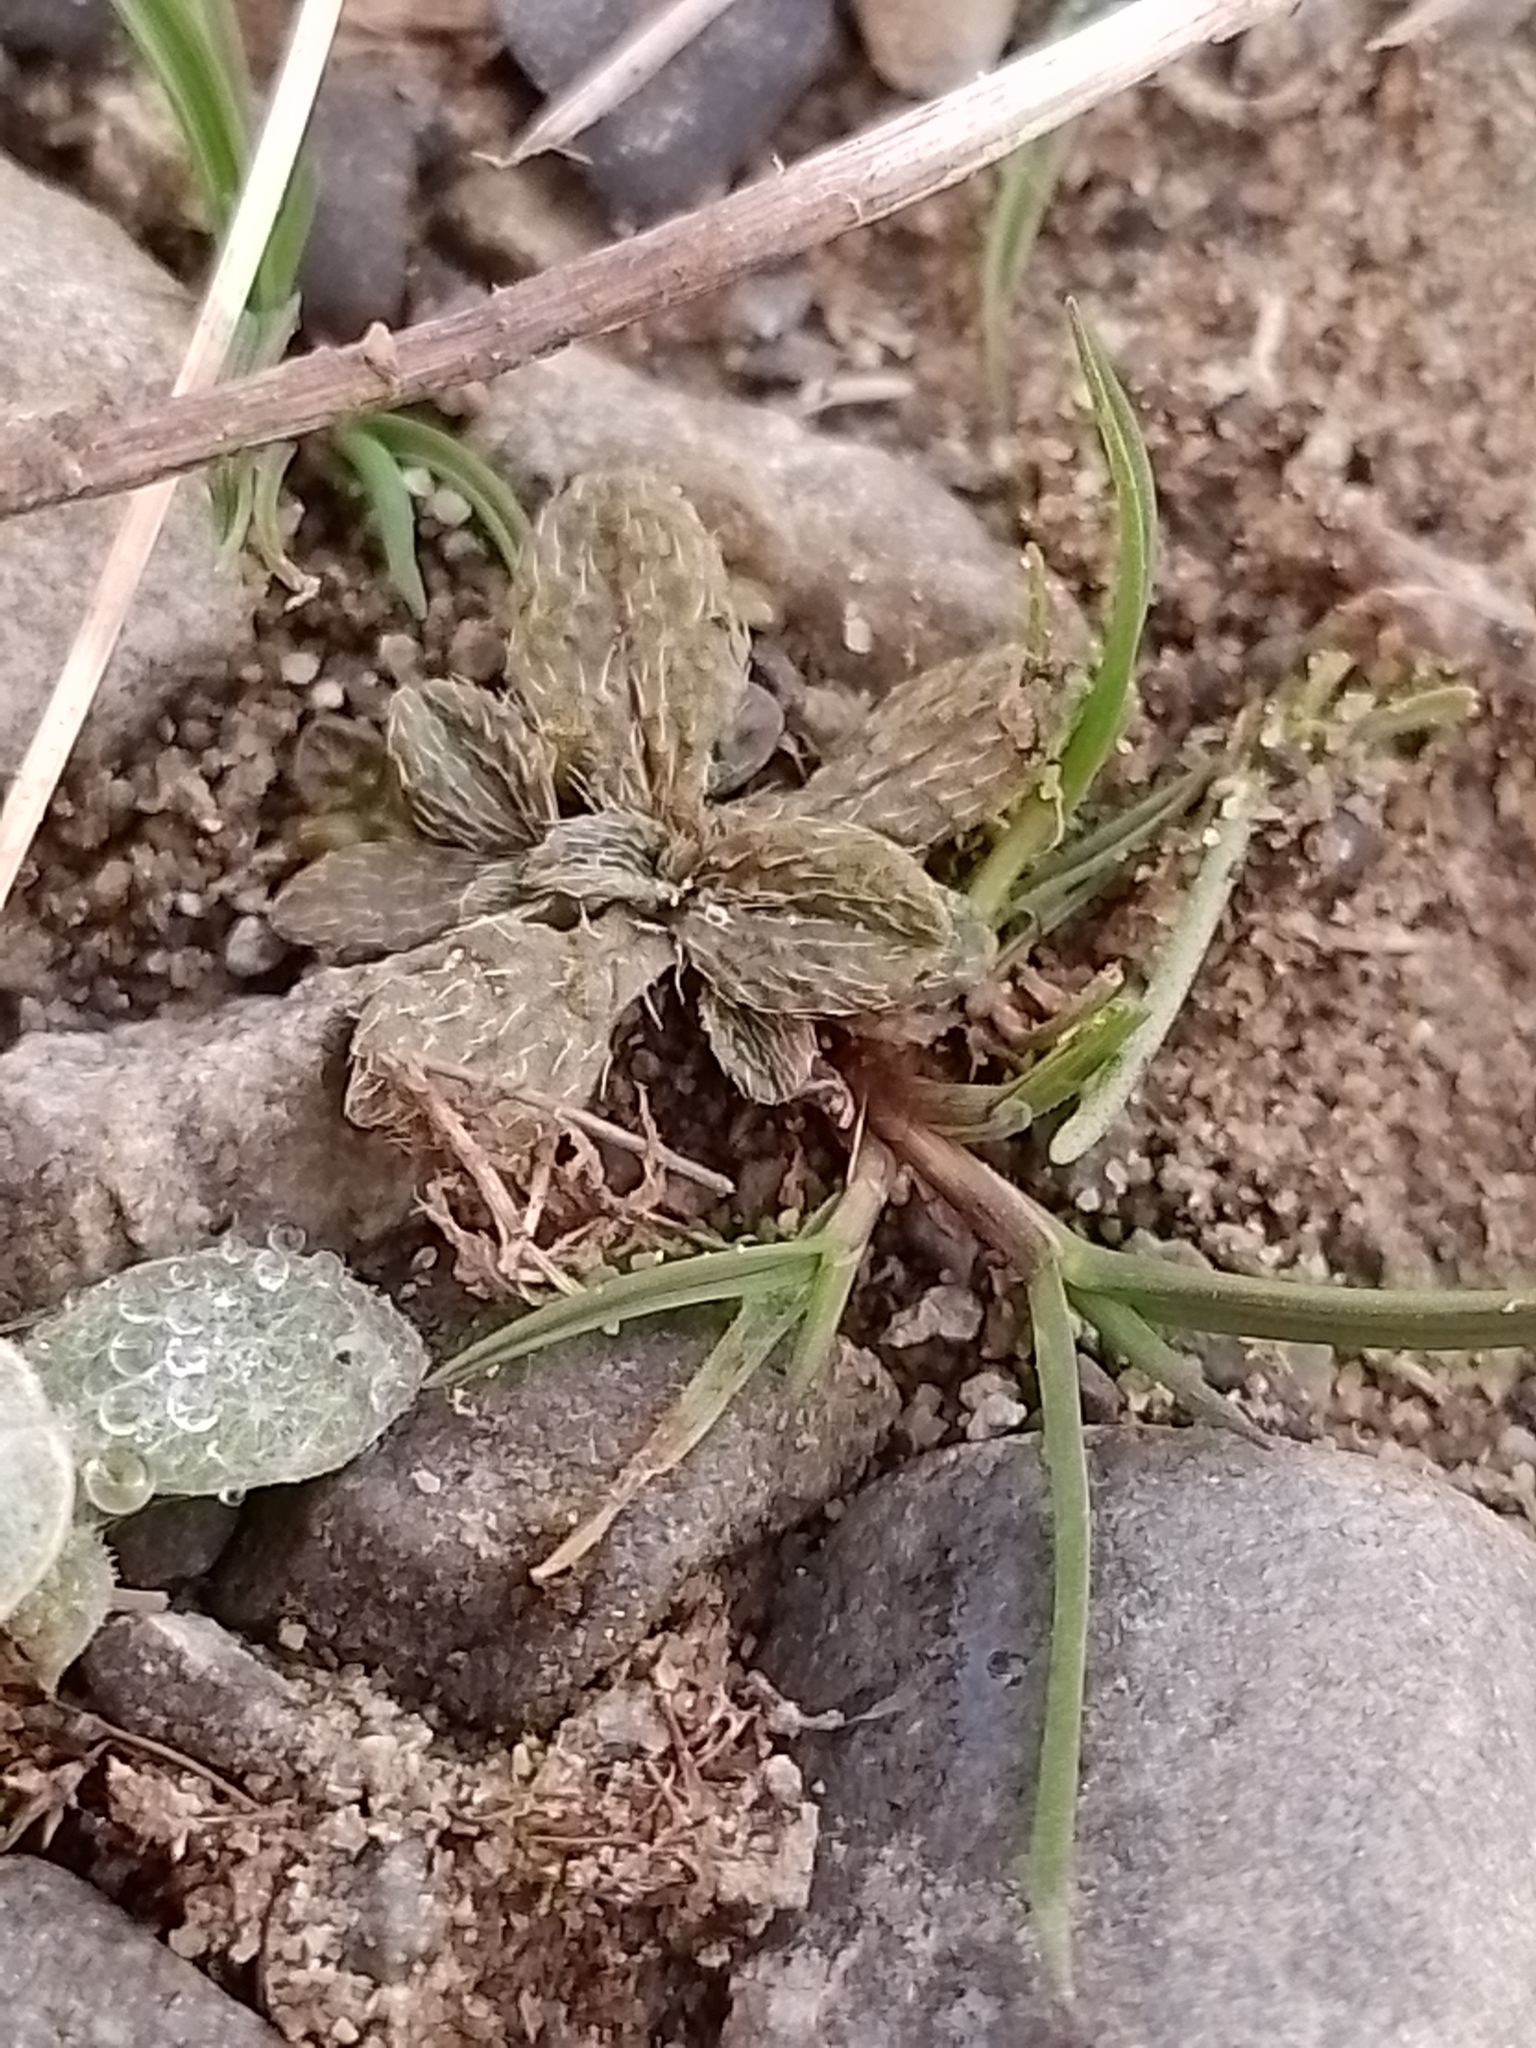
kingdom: Plantae
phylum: Tracheophyta
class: Magnoliopsida
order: Boraginales
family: Boraginaceae
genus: Myosotis
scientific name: Myosotis brevis
